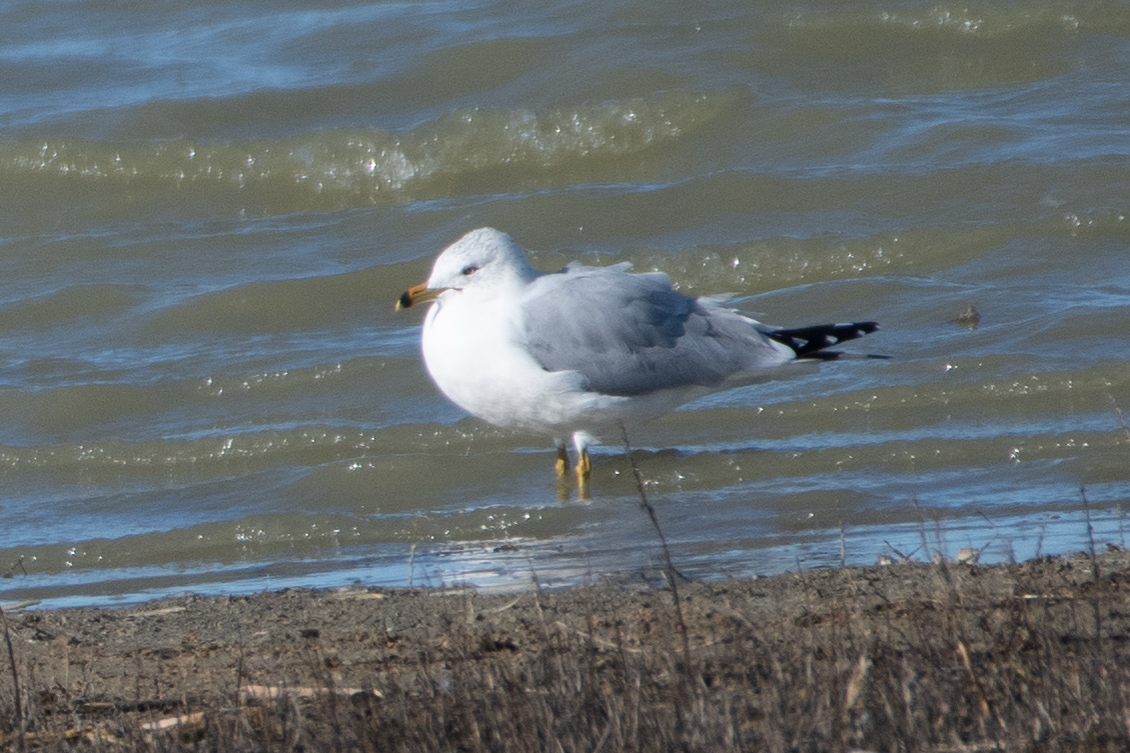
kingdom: Animalia
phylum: Chordata
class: Aves
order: Charadriiformes
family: Laridae
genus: Larus
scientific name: Larus delawarensis
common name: Ring-billed gull
